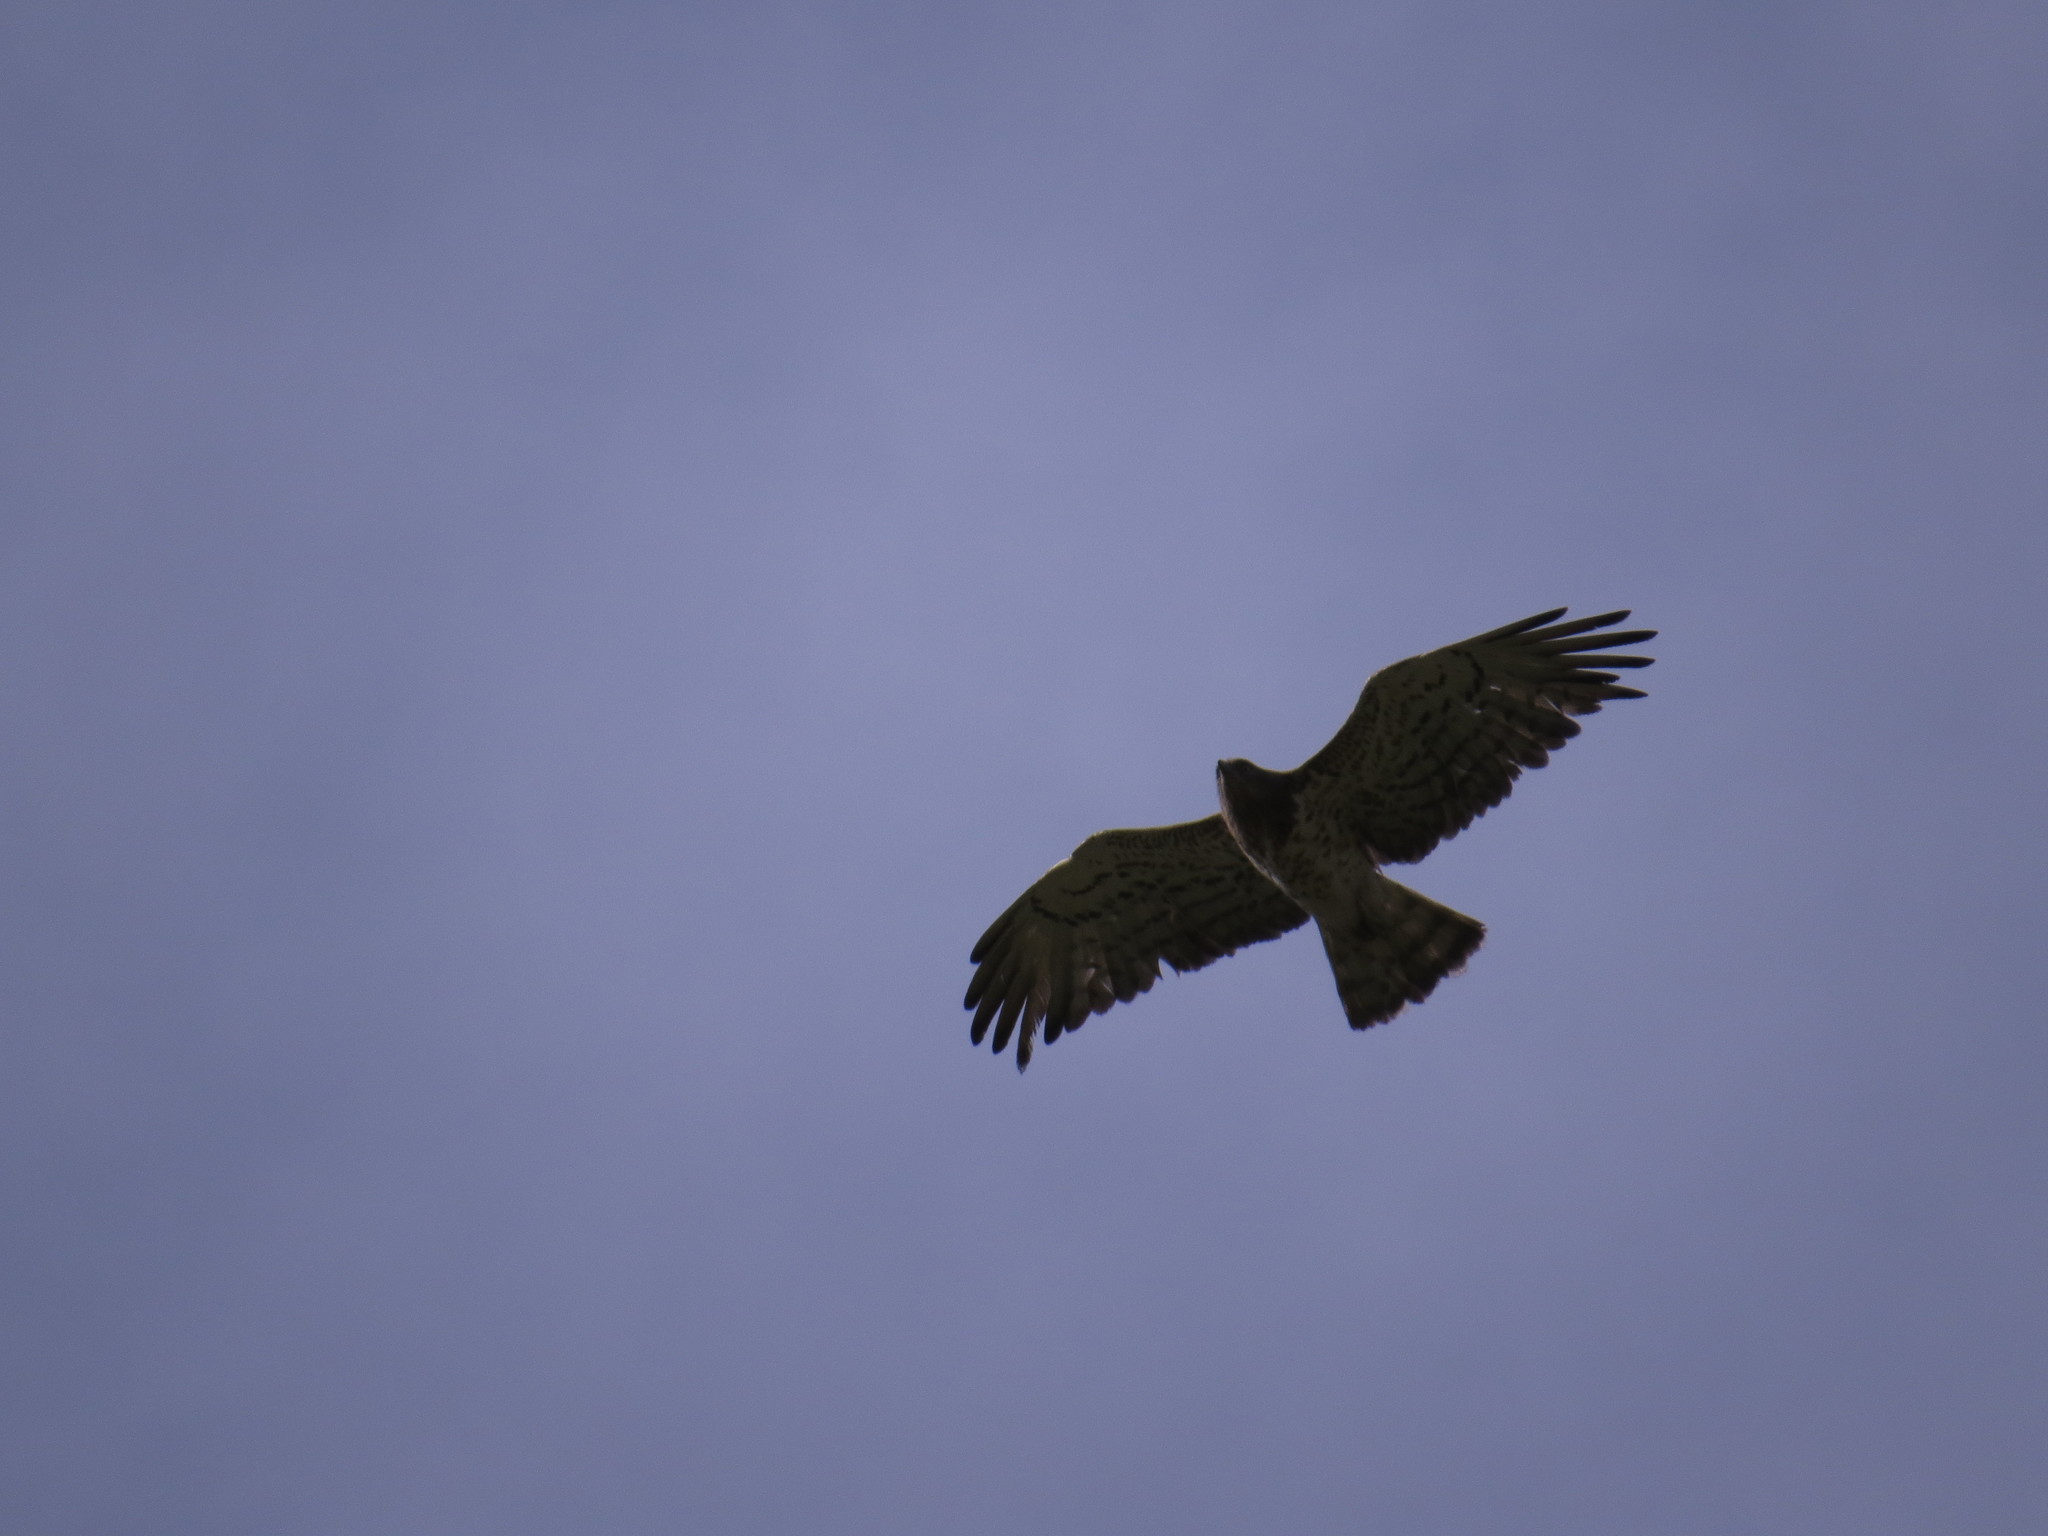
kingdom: Animalia
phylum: Chordata
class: Aves
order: Accipitriformes
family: Accipitridae
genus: Circaetus
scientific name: Circaetus gallicus
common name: Short-toed snake eagle
